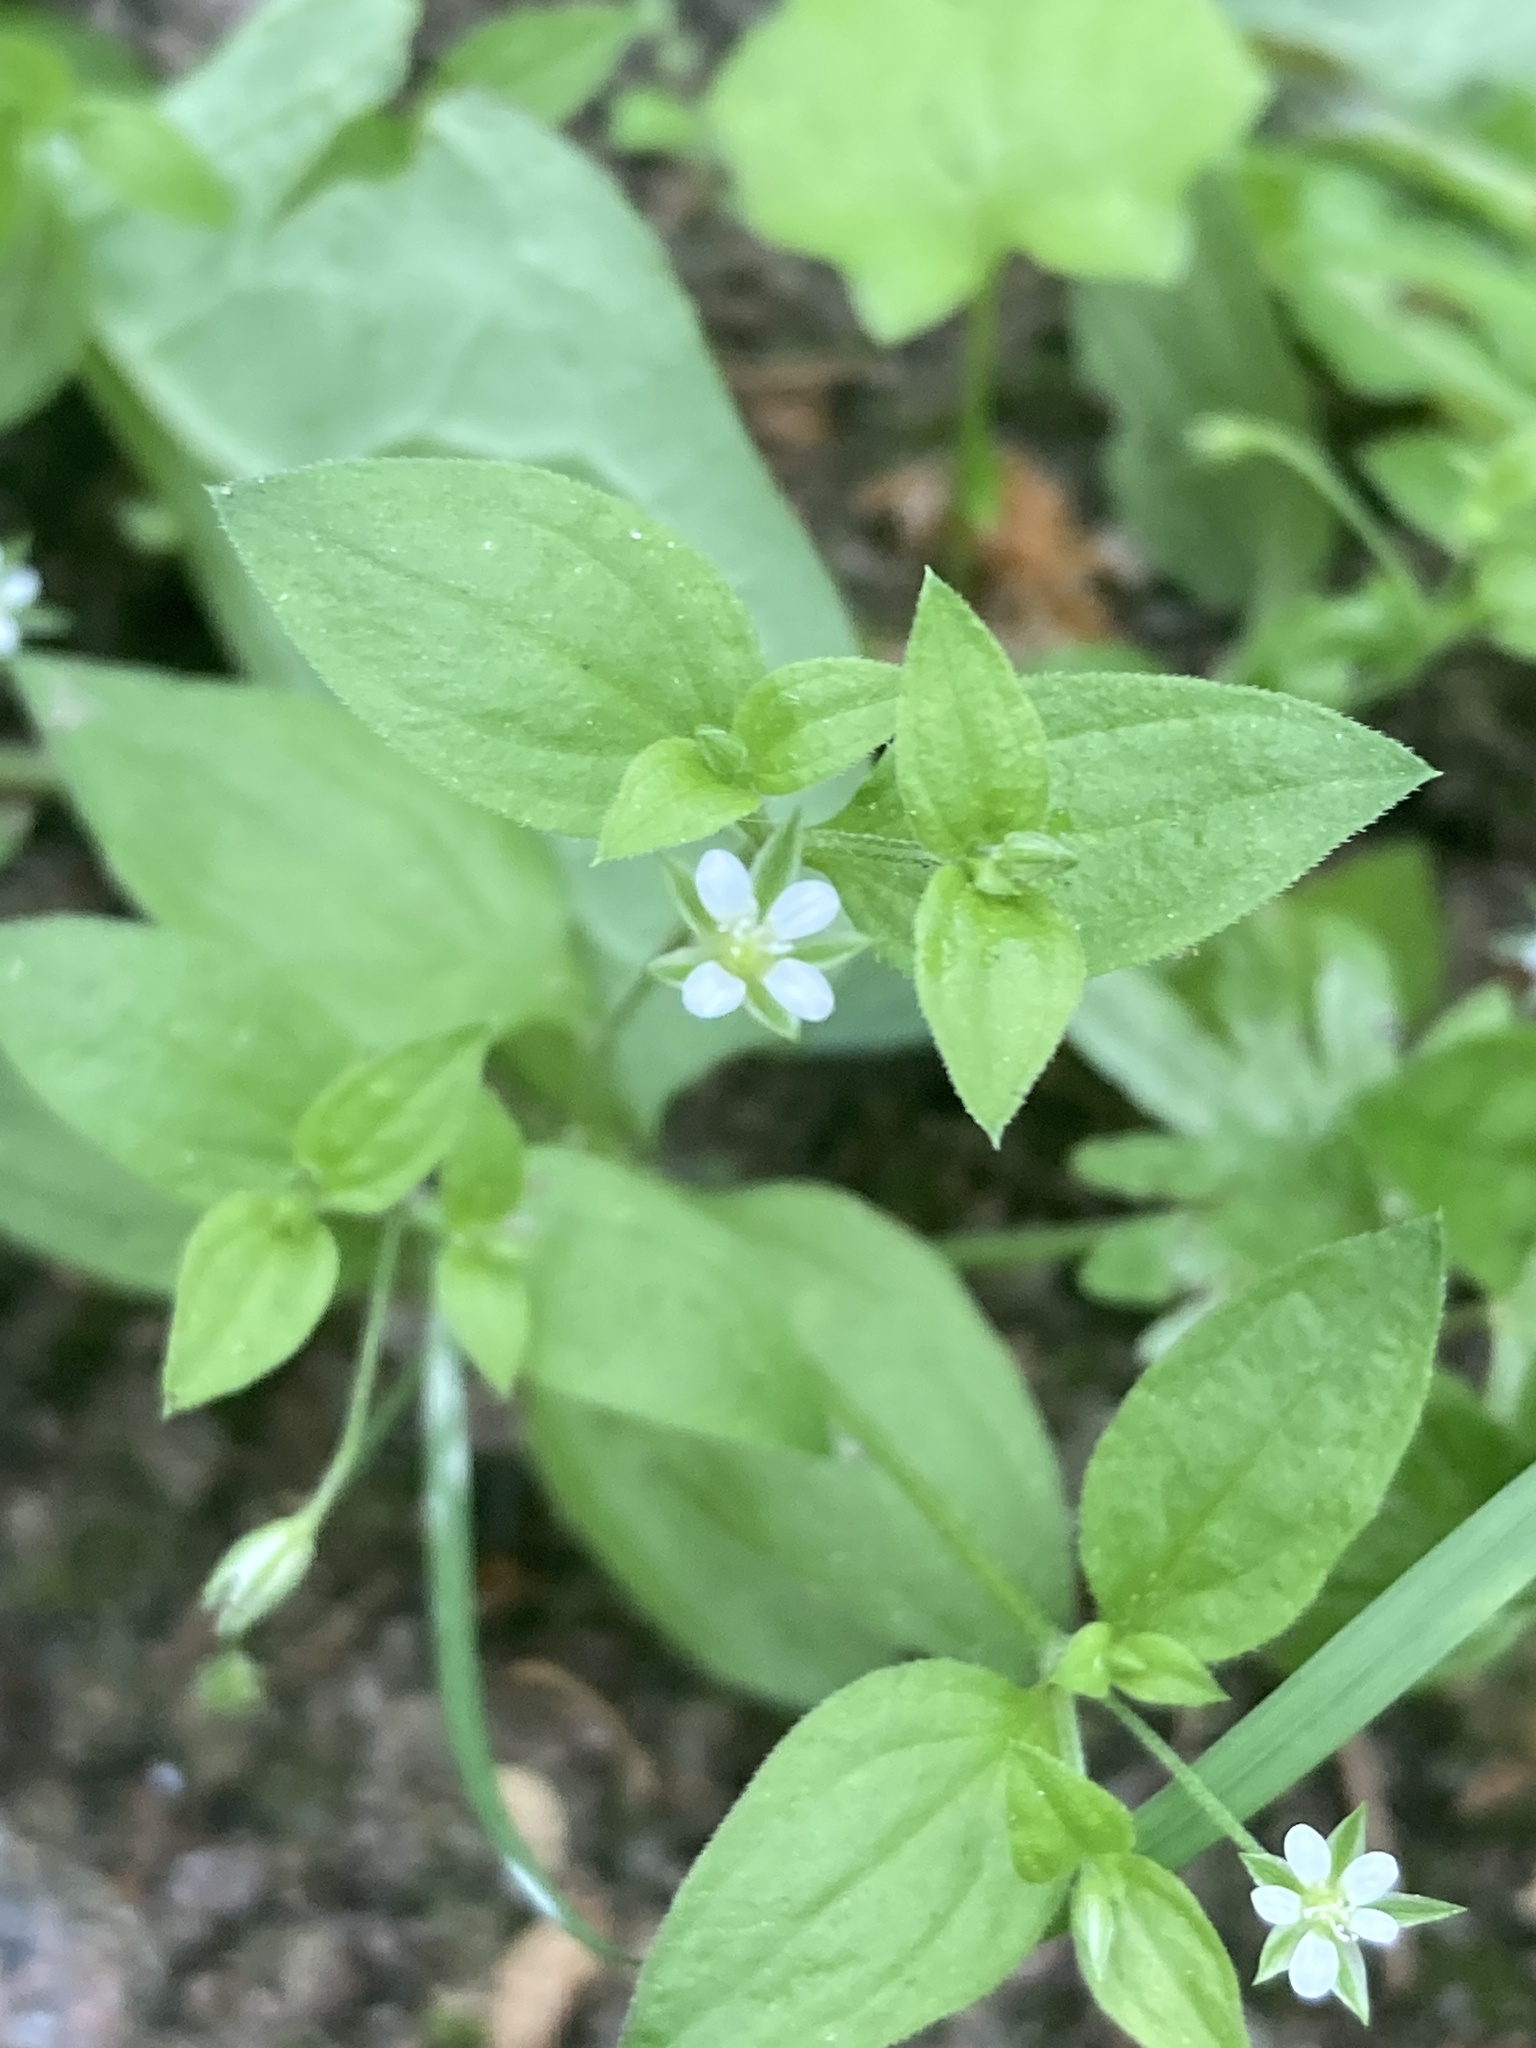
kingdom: Plantae
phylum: Tracheophyta
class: Magnoliopsida
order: Caryophyllales
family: Caryophyllaceae
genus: Moehringia
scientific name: Moehringia trinervia
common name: Three-nerved sandwort
